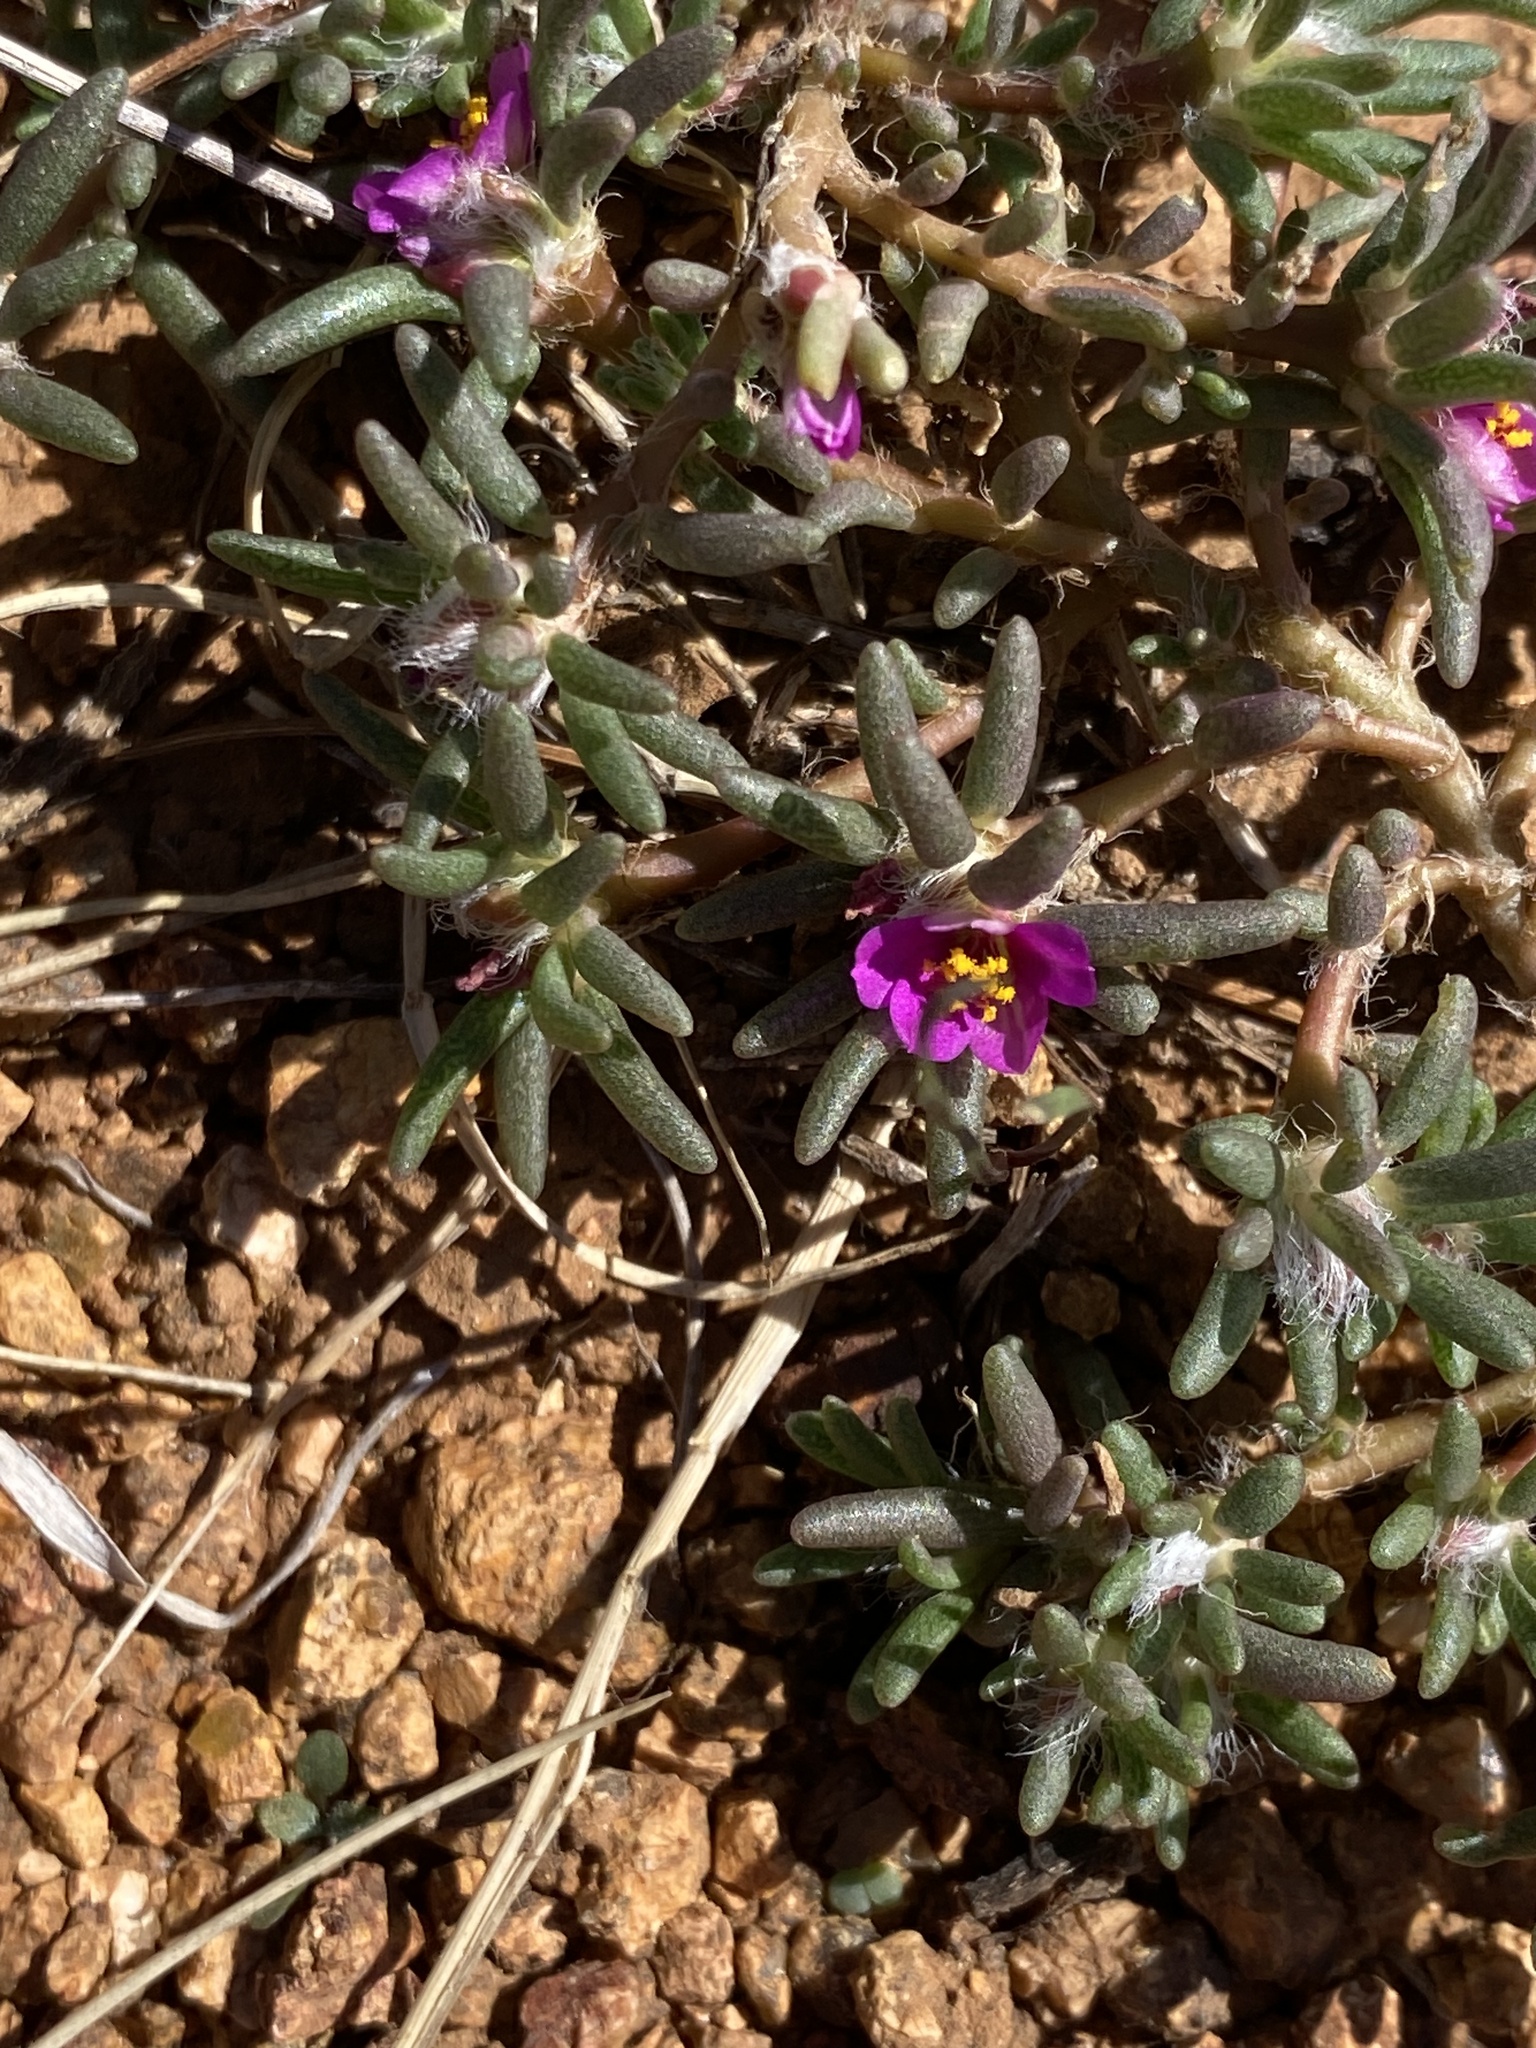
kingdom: Plantae
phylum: Tracheophyta
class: Magnoliopsida
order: Caryophyllales
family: Portulacaceae
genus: Portulaca
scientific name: Portulaca pilosa
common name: Kiss me quick
